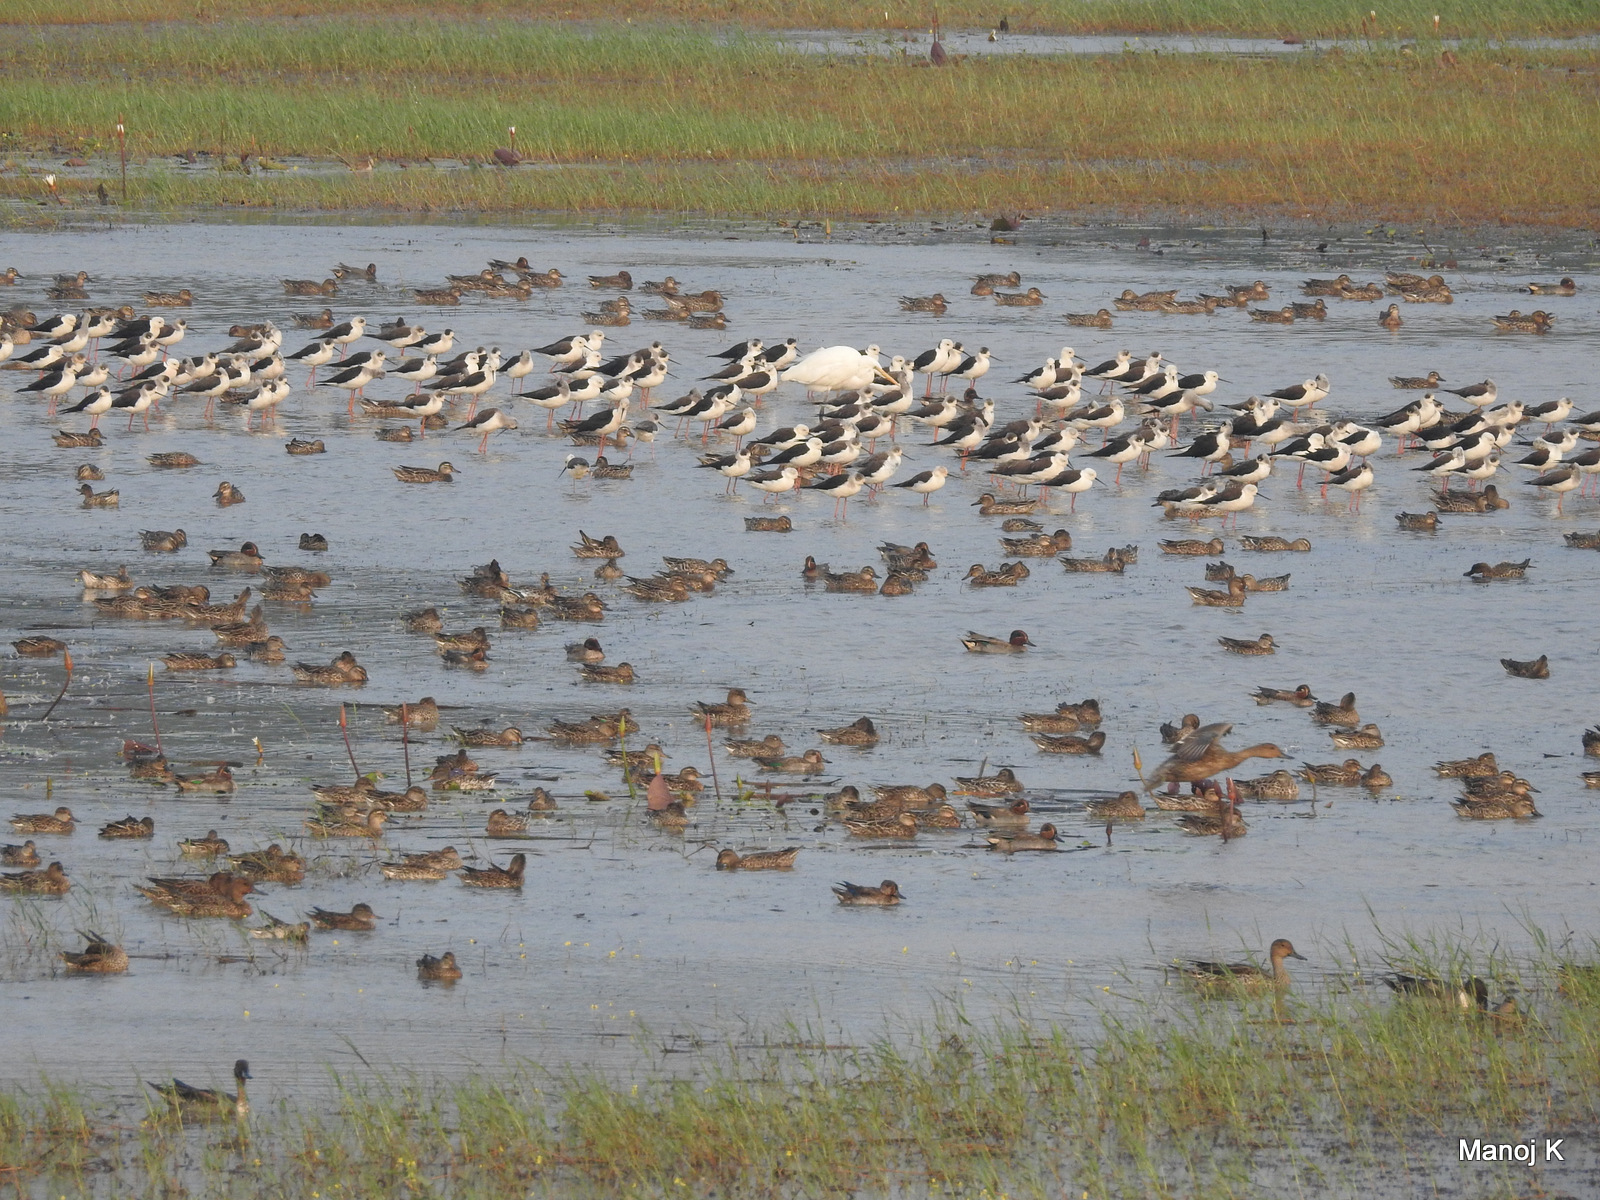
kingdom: Animalia
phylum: Chordata
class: Aves
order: Charadriiformes
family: Recurvirostridae
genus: Himantopus
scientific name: Himantopus himantopus
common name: Black-winged stilt
